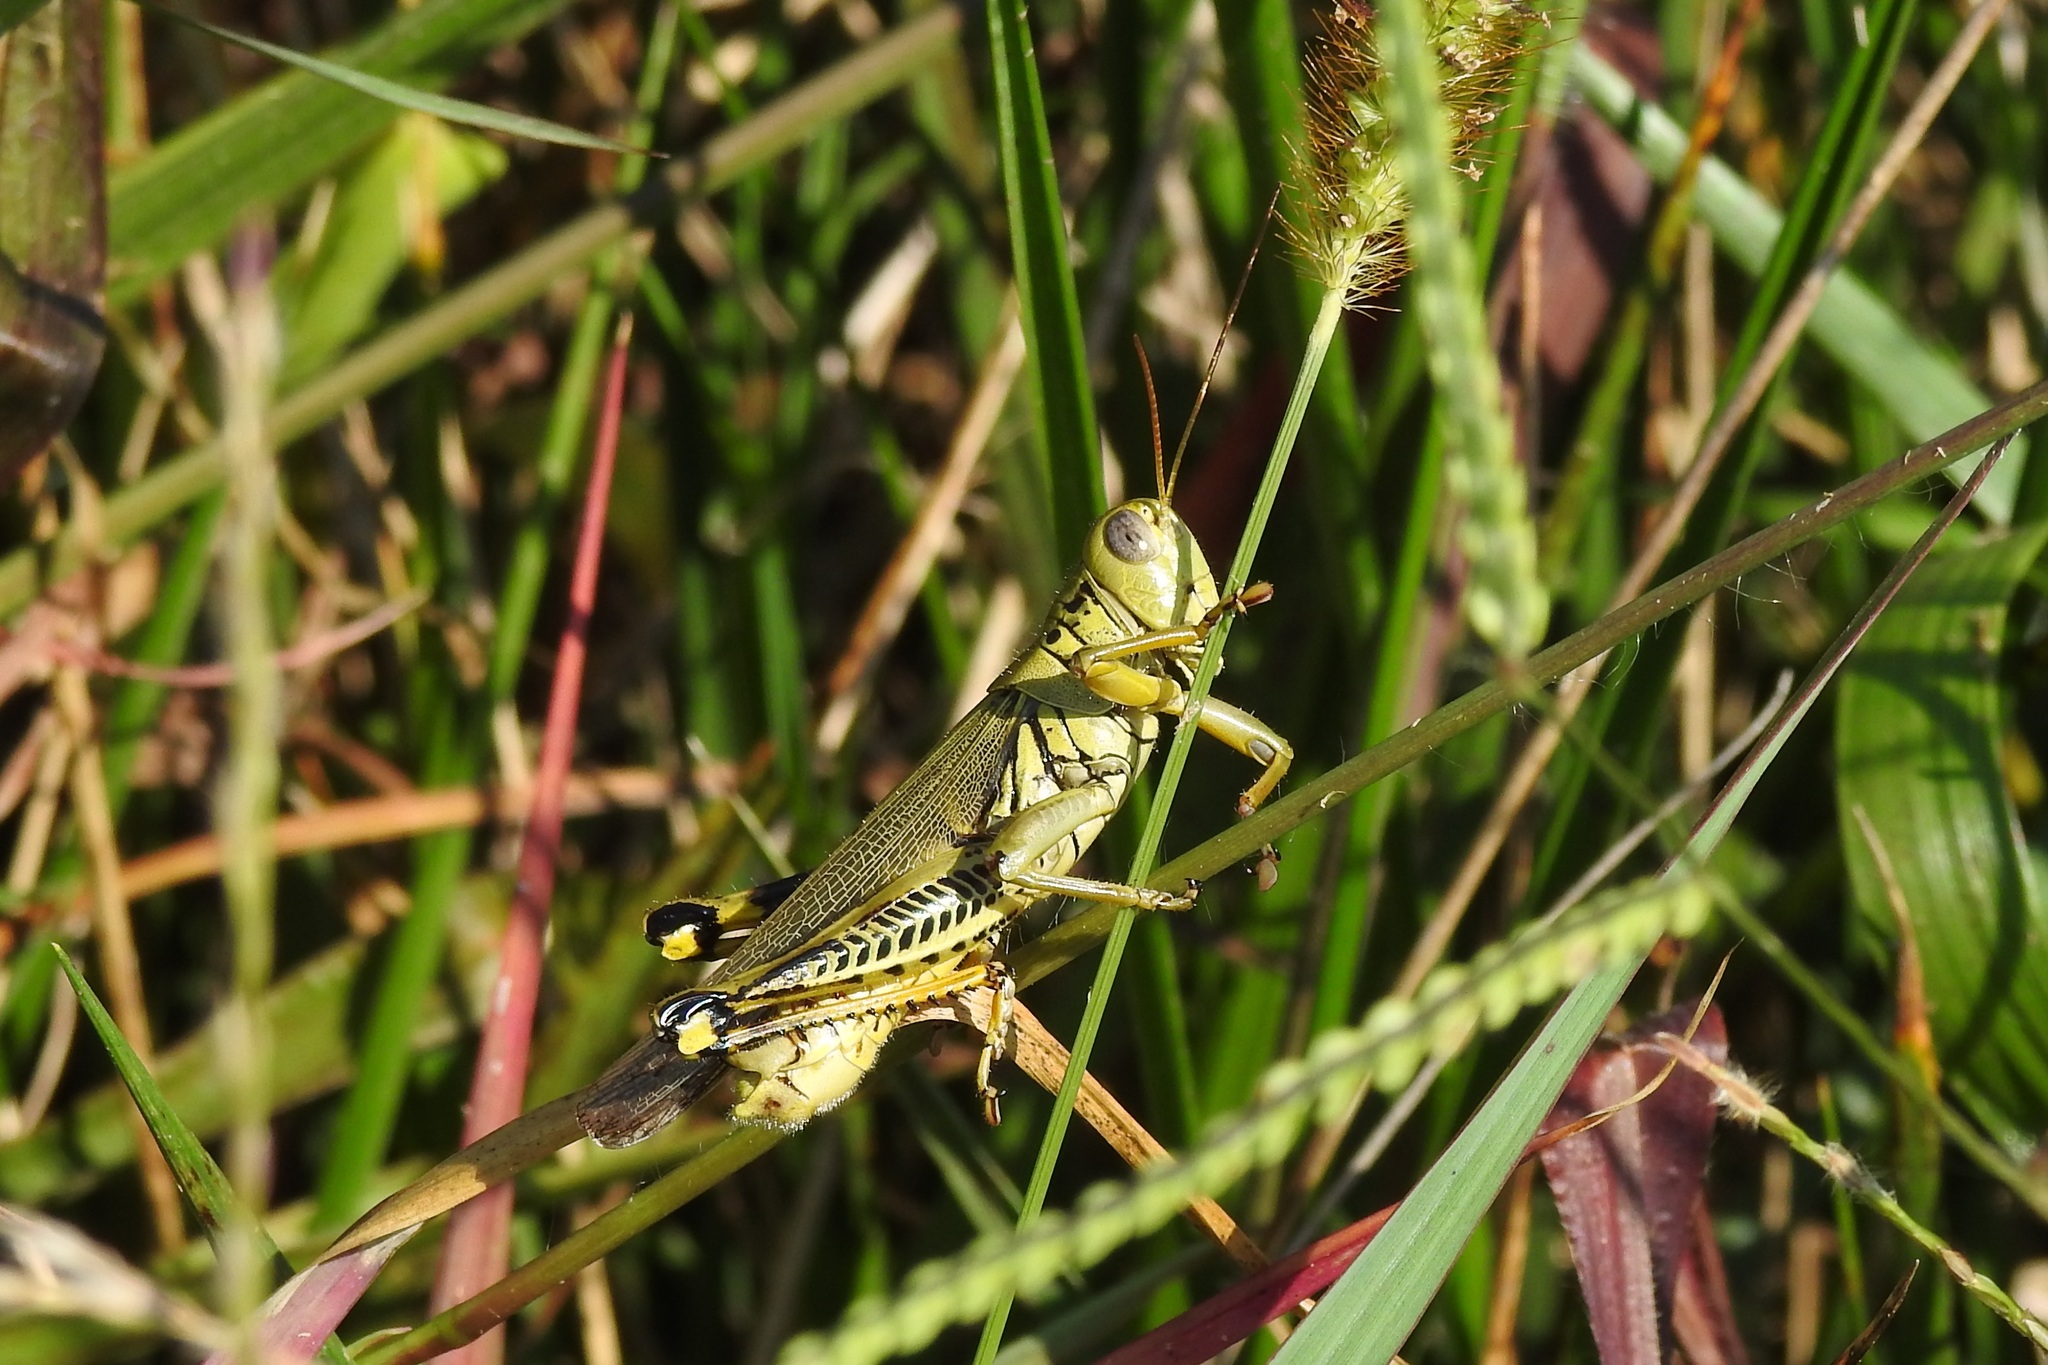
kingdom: Animalia
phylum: Arthropoda
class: Insecta
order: Orthoptera
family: Acrididae
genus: Melanoplus
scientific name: Melanoplus differentialis
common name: Differential grasshopper
